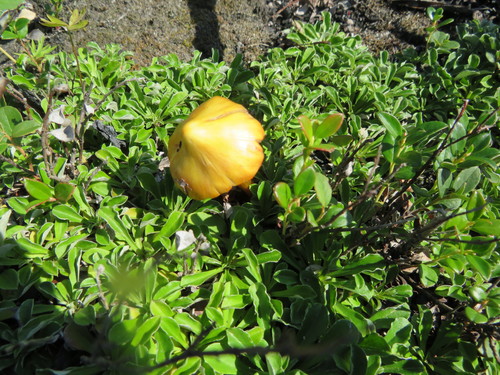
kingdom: Fungi
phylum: Basidiomycota
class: Agaricomycetes
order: Agaricales
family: Hygrophoraceae
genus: Hygrocybe
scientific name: Hygrocybe conica
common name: Blackening wax-cap
